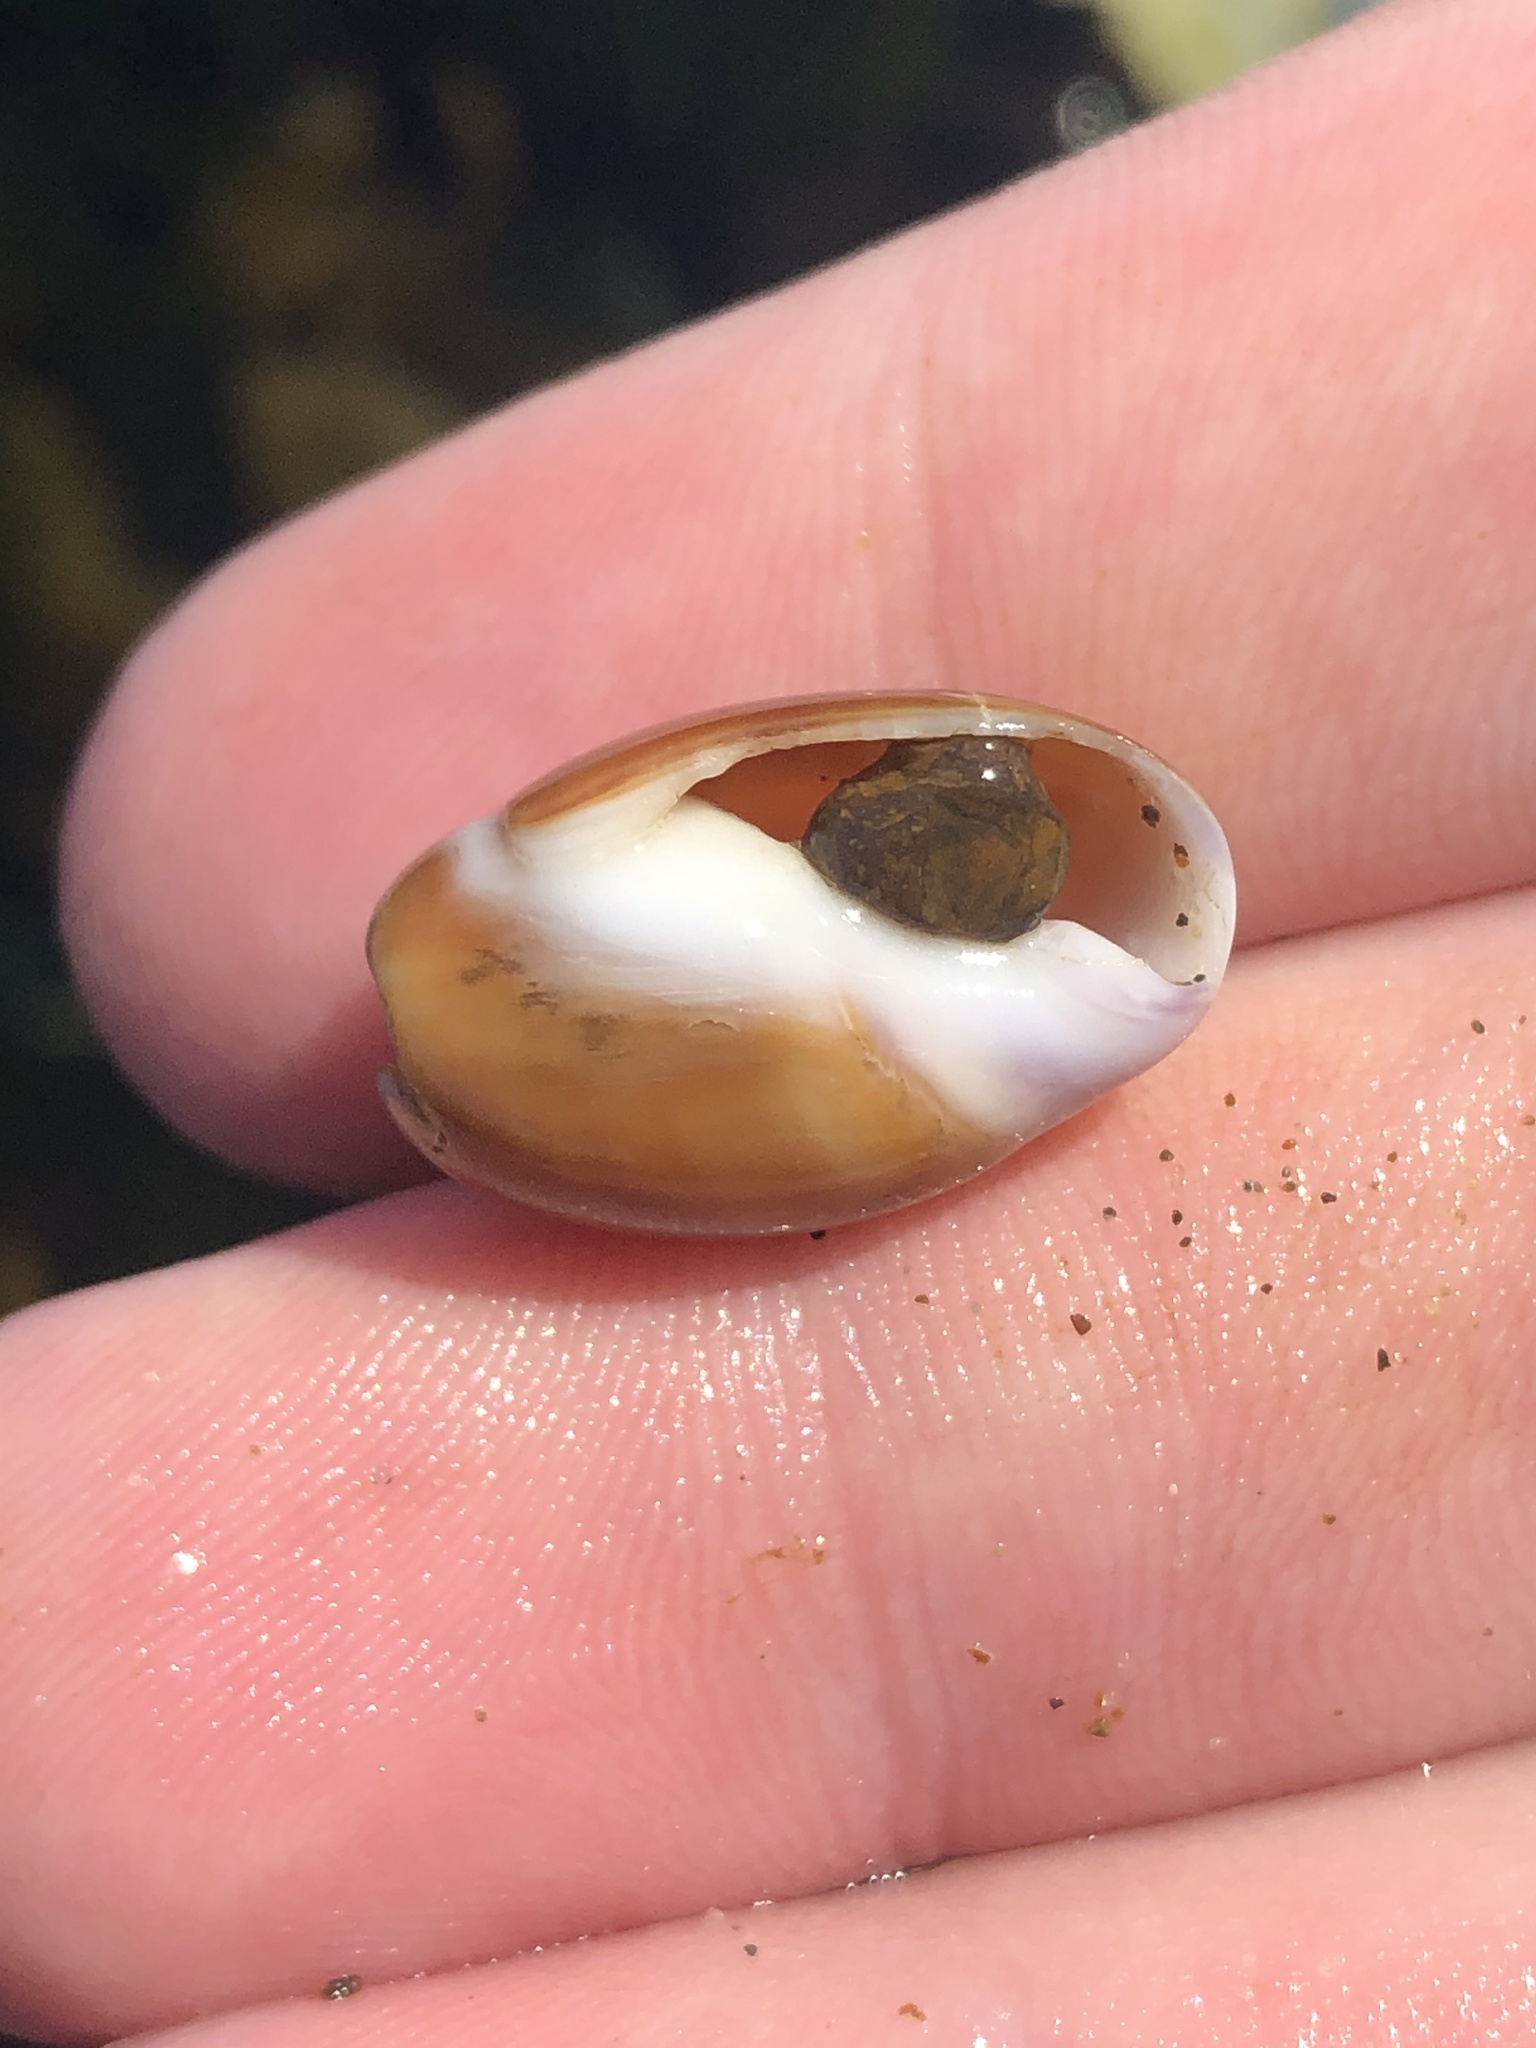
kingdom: Animalia
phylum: Mollusca
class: Gastropoda
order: Neogastropoda
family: Olividae
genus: Callianax
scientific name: Callianax biplicata
